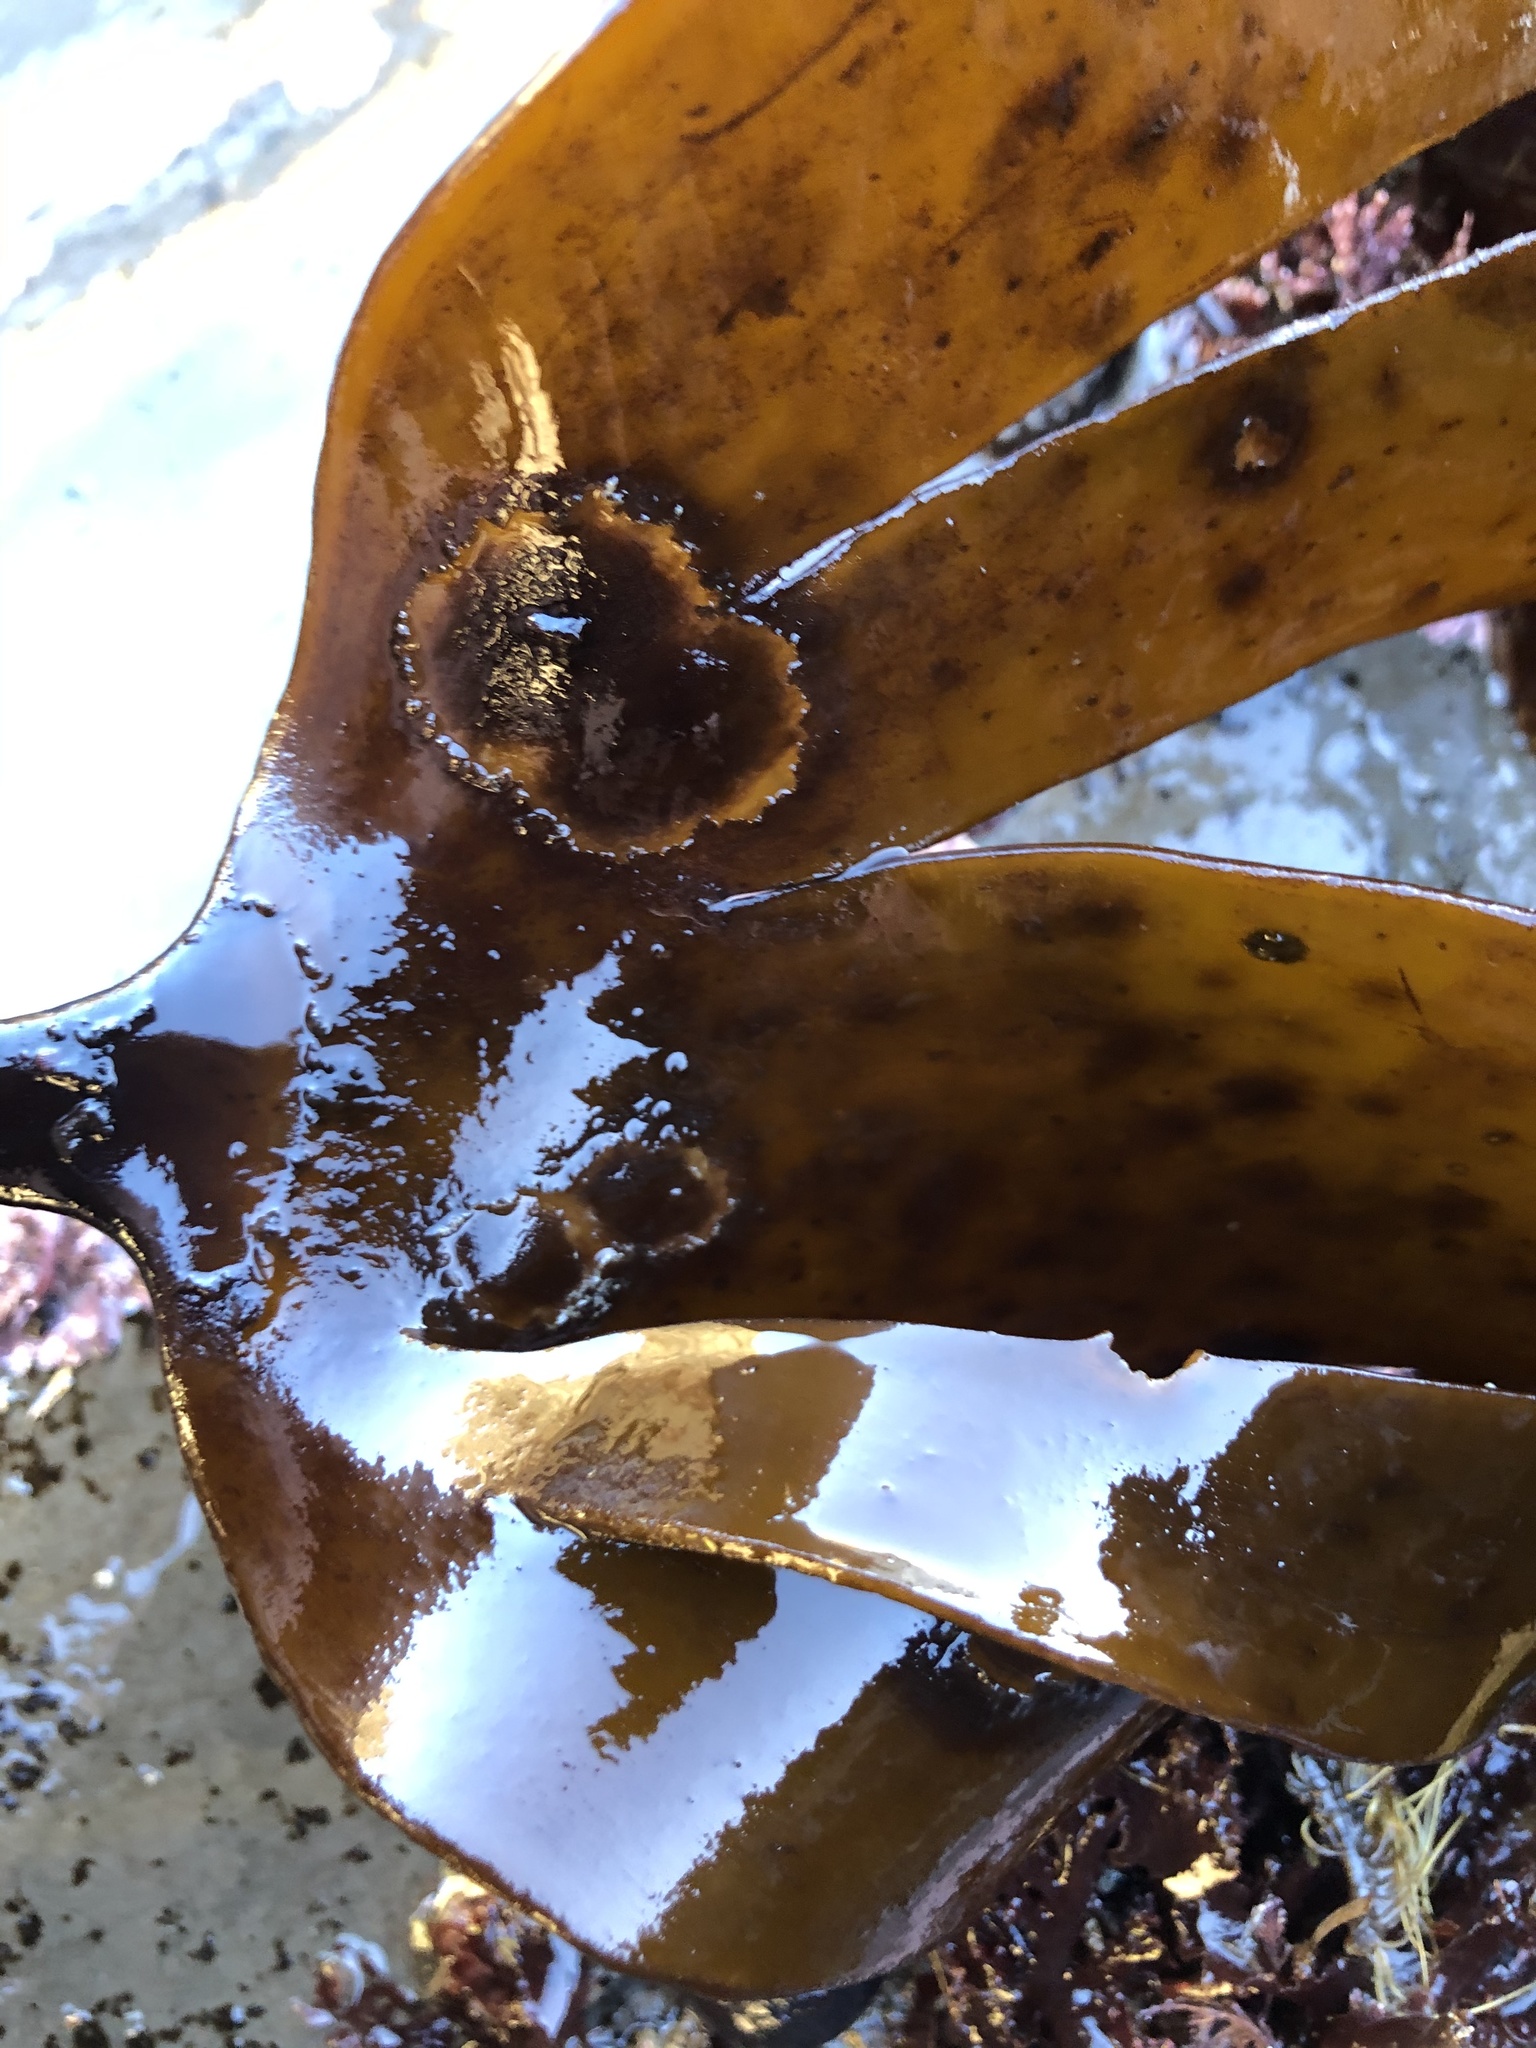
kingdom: Chromista
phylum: Ochrophyta
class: Phaeophyceae
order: Laminariales
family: Laminariaceae
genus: Laminaria
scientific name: Laminaria setchellii
